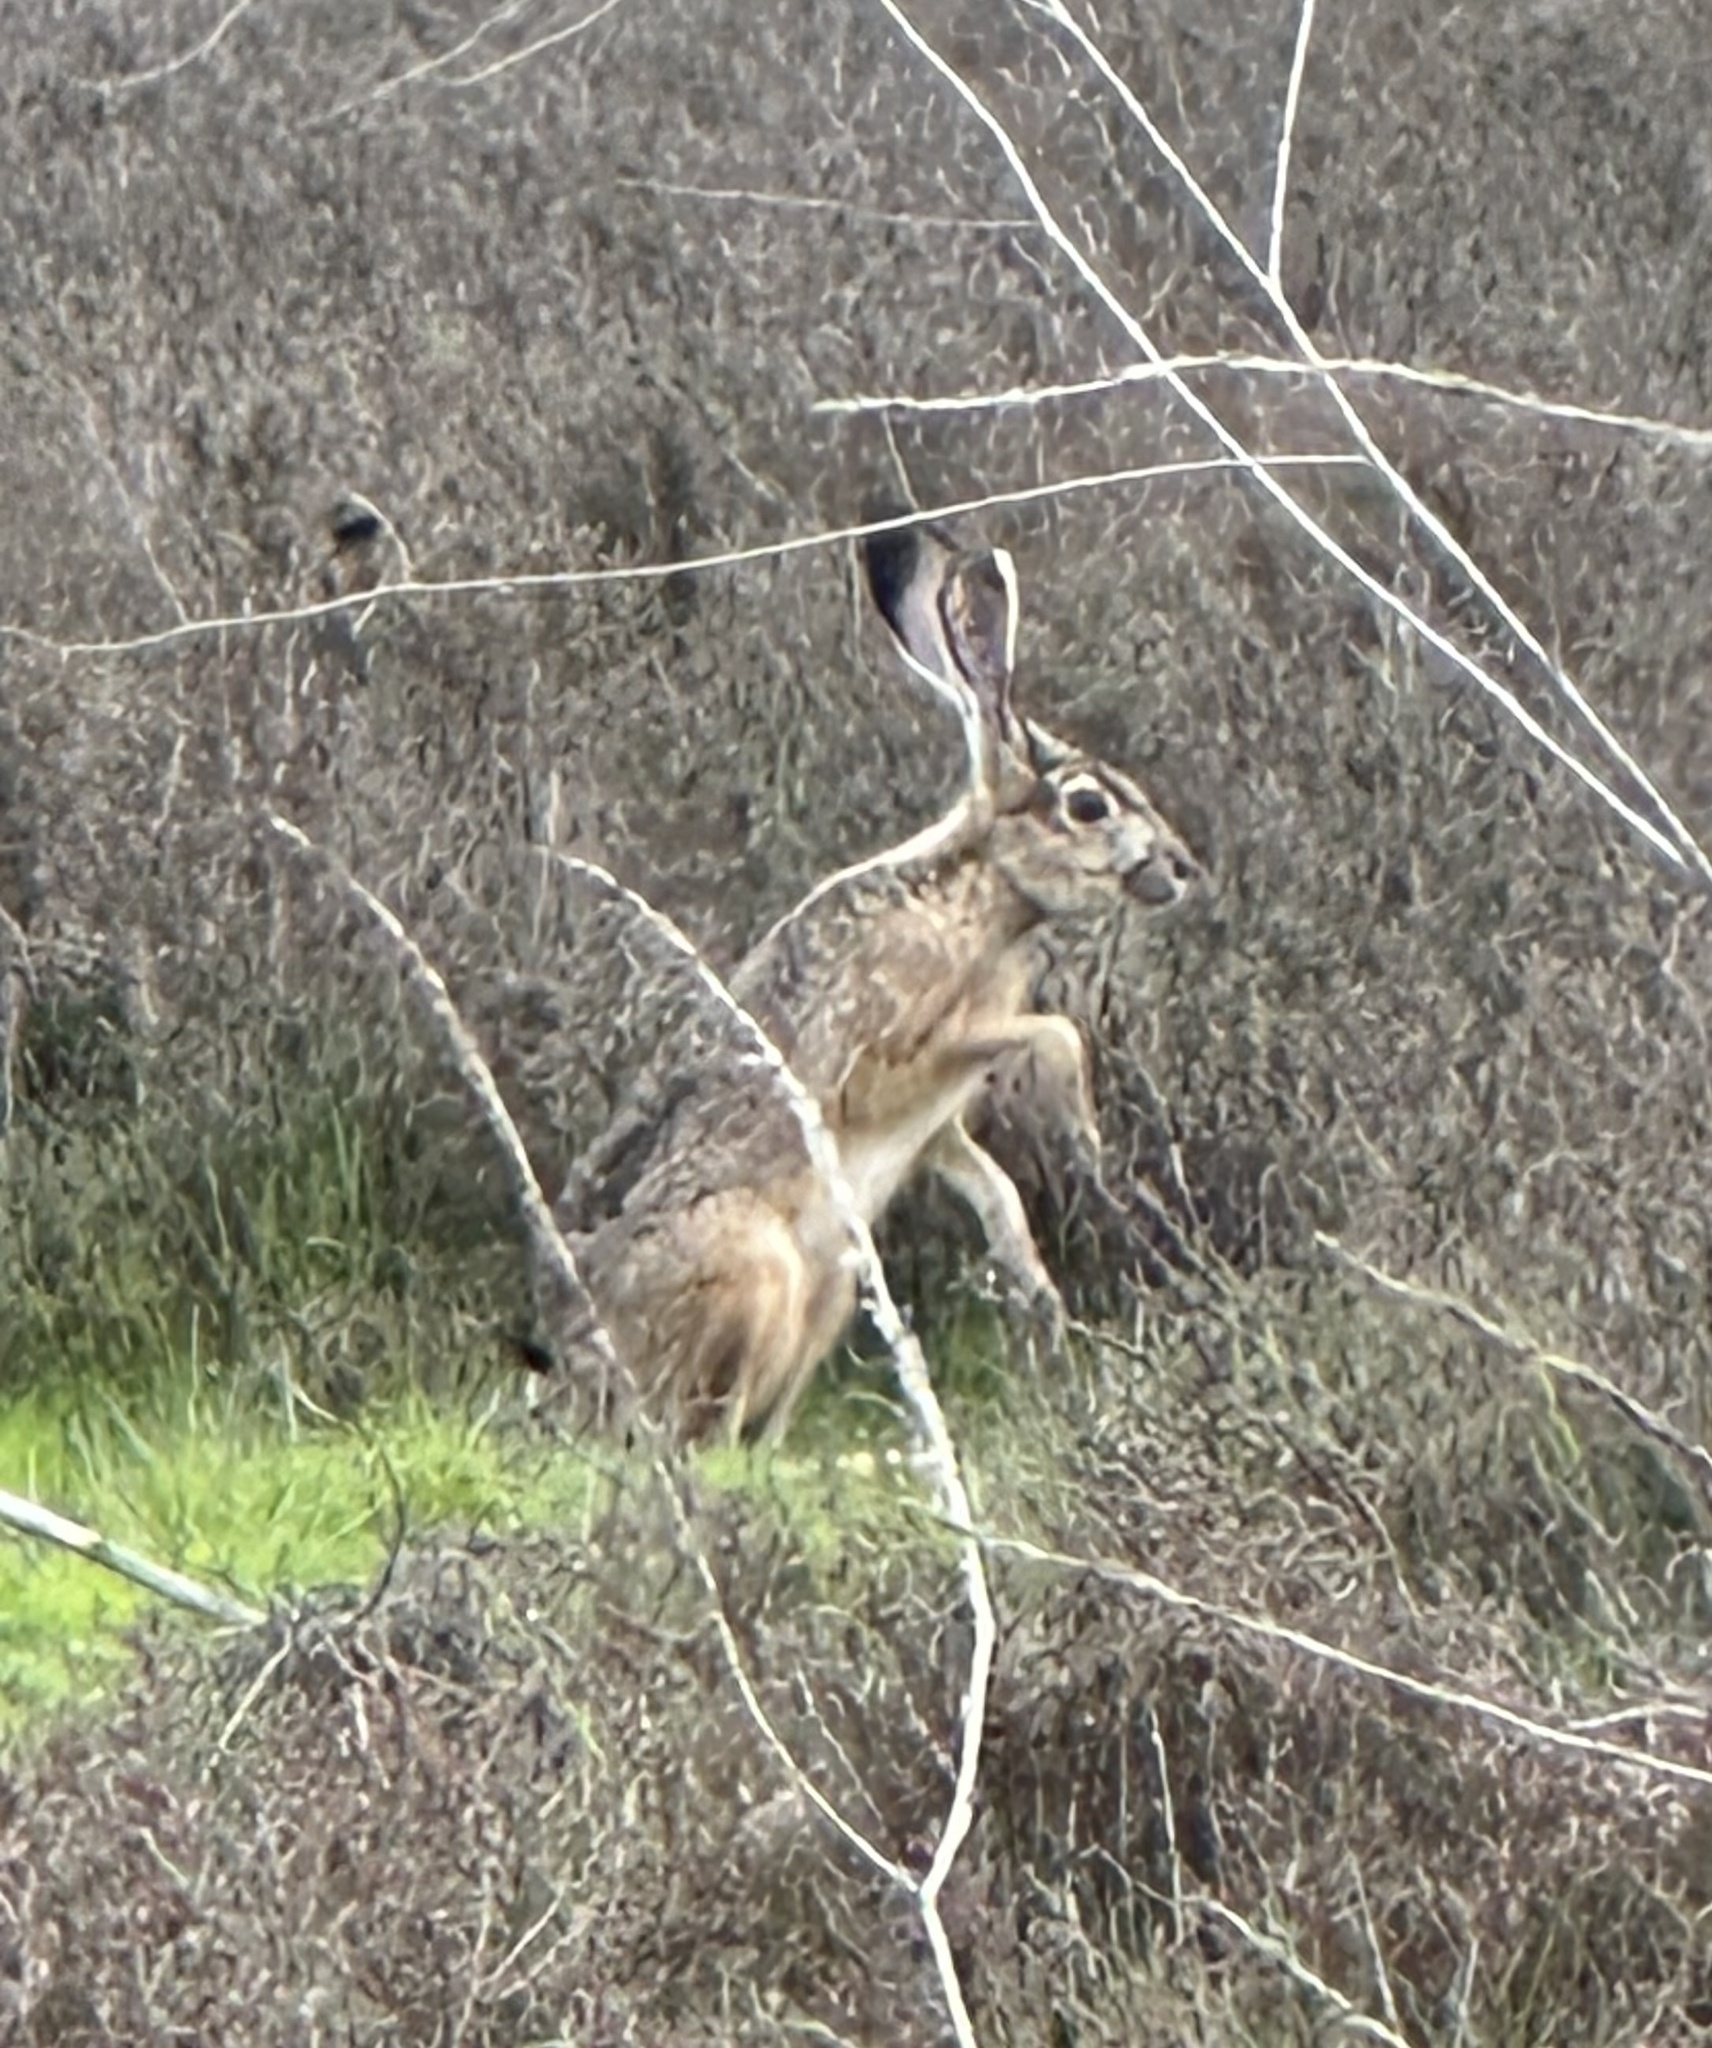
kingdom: Animalia
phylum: Chordata
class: Mammalia
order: Lagomorpha
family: Leporidae
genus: Lepus
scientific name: Lepus californicus
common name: Black-tailed jackrabbit
